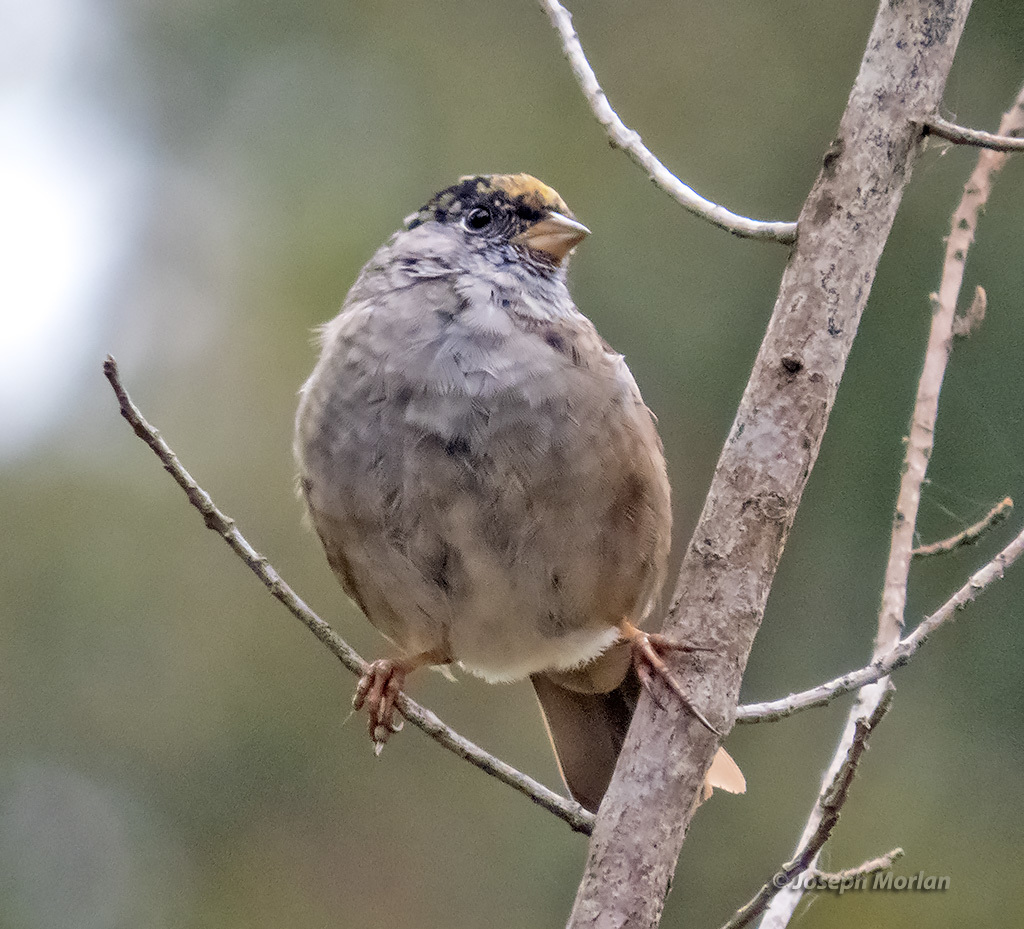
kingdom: Animalia
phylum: Chordata
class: Aves
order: Passeriformes
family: Passerellidae
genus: Zonotrichia
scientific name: Zonotrichia atricapilla
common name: Golden-crowned sparrow
